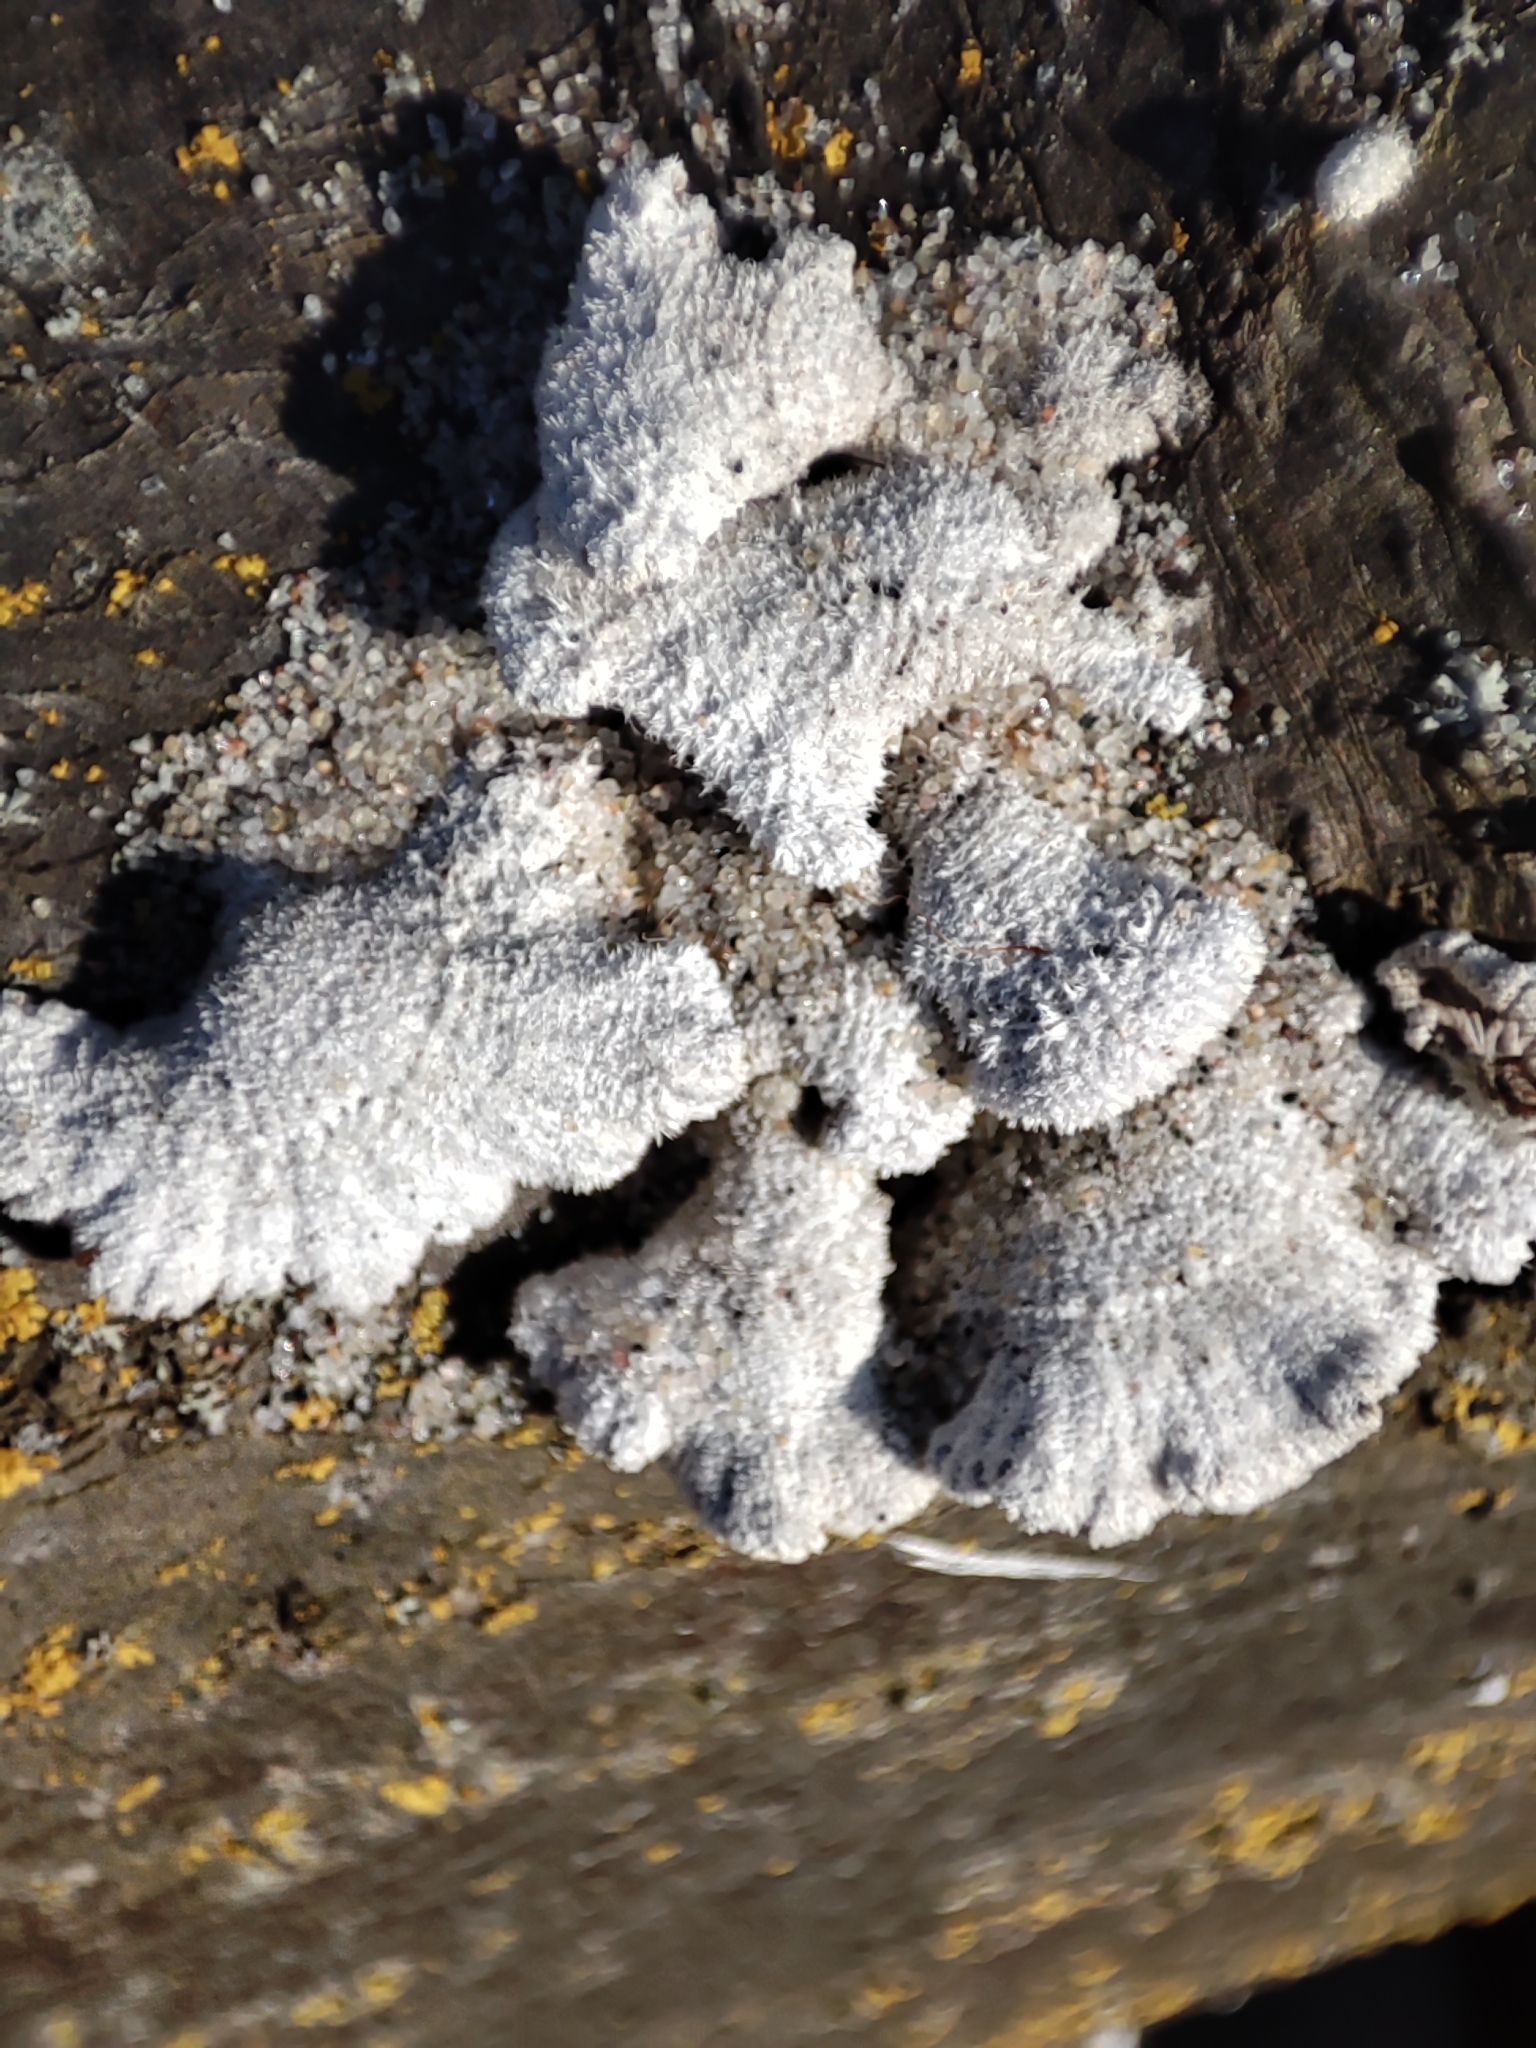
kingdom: Fungi
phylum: Basidiomycota
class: Agaricomycetes
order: Agaricales
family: Schizophyllaceae
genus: Schizophyllum
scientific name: Schizophyllum commune
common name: Common porecrust
